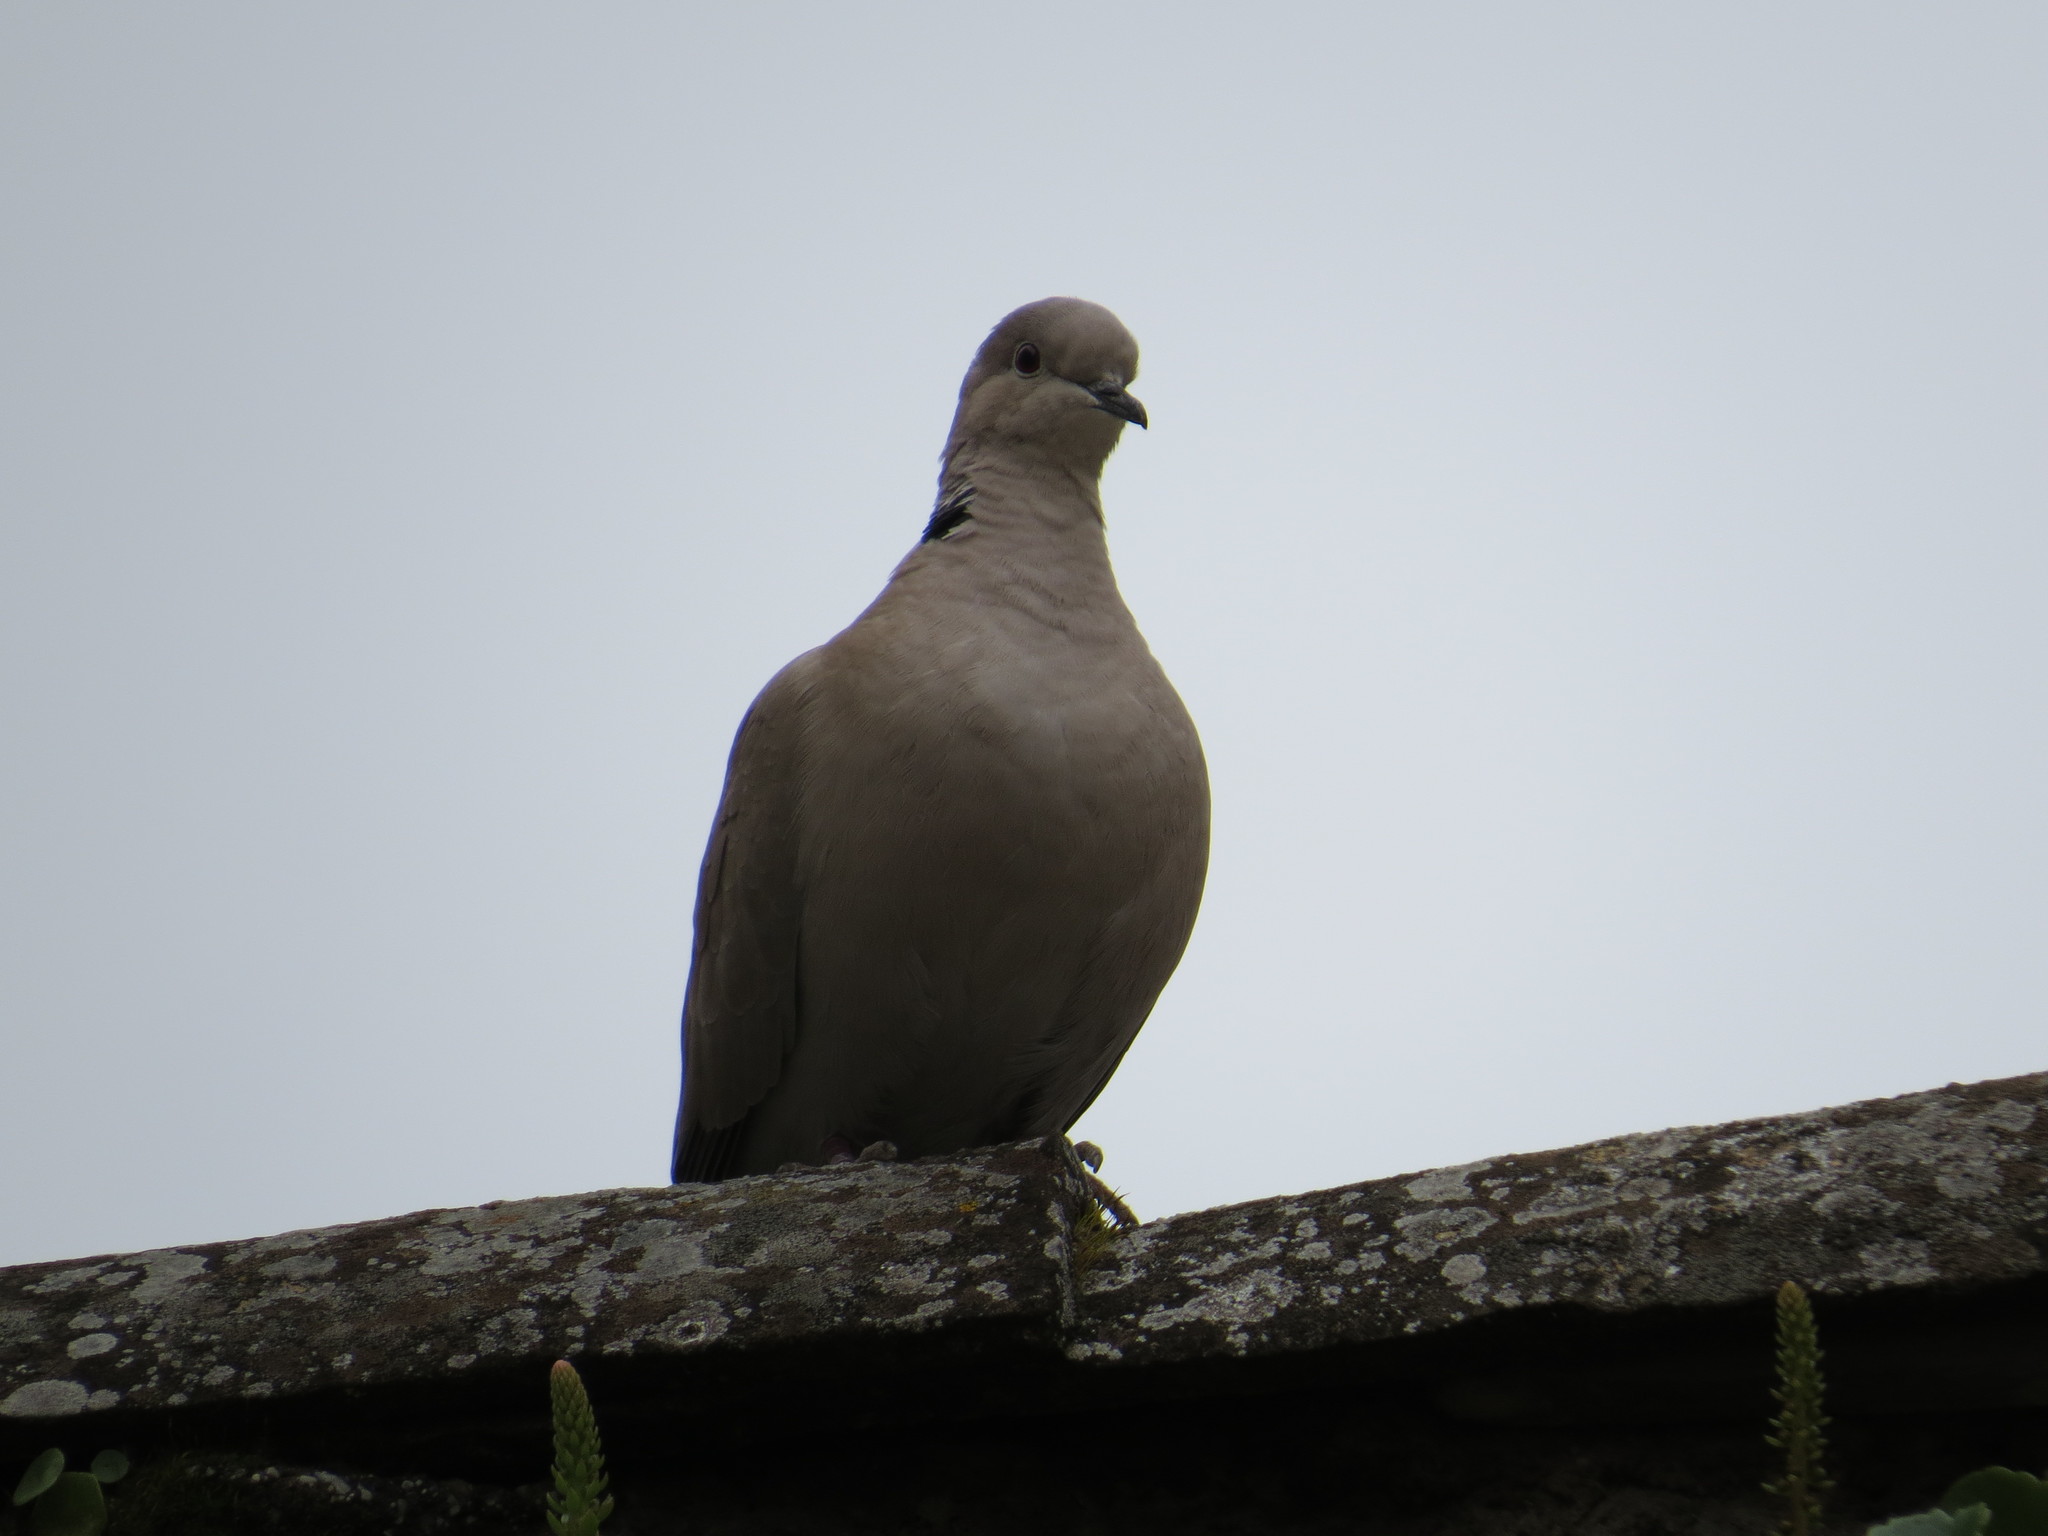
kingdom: Animalia
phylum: Chordata
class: Aves
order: Columbiformes
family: Columbidae
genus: Streptopelia
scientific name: Streptopelia decaocto
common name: Eurasian collared dove
